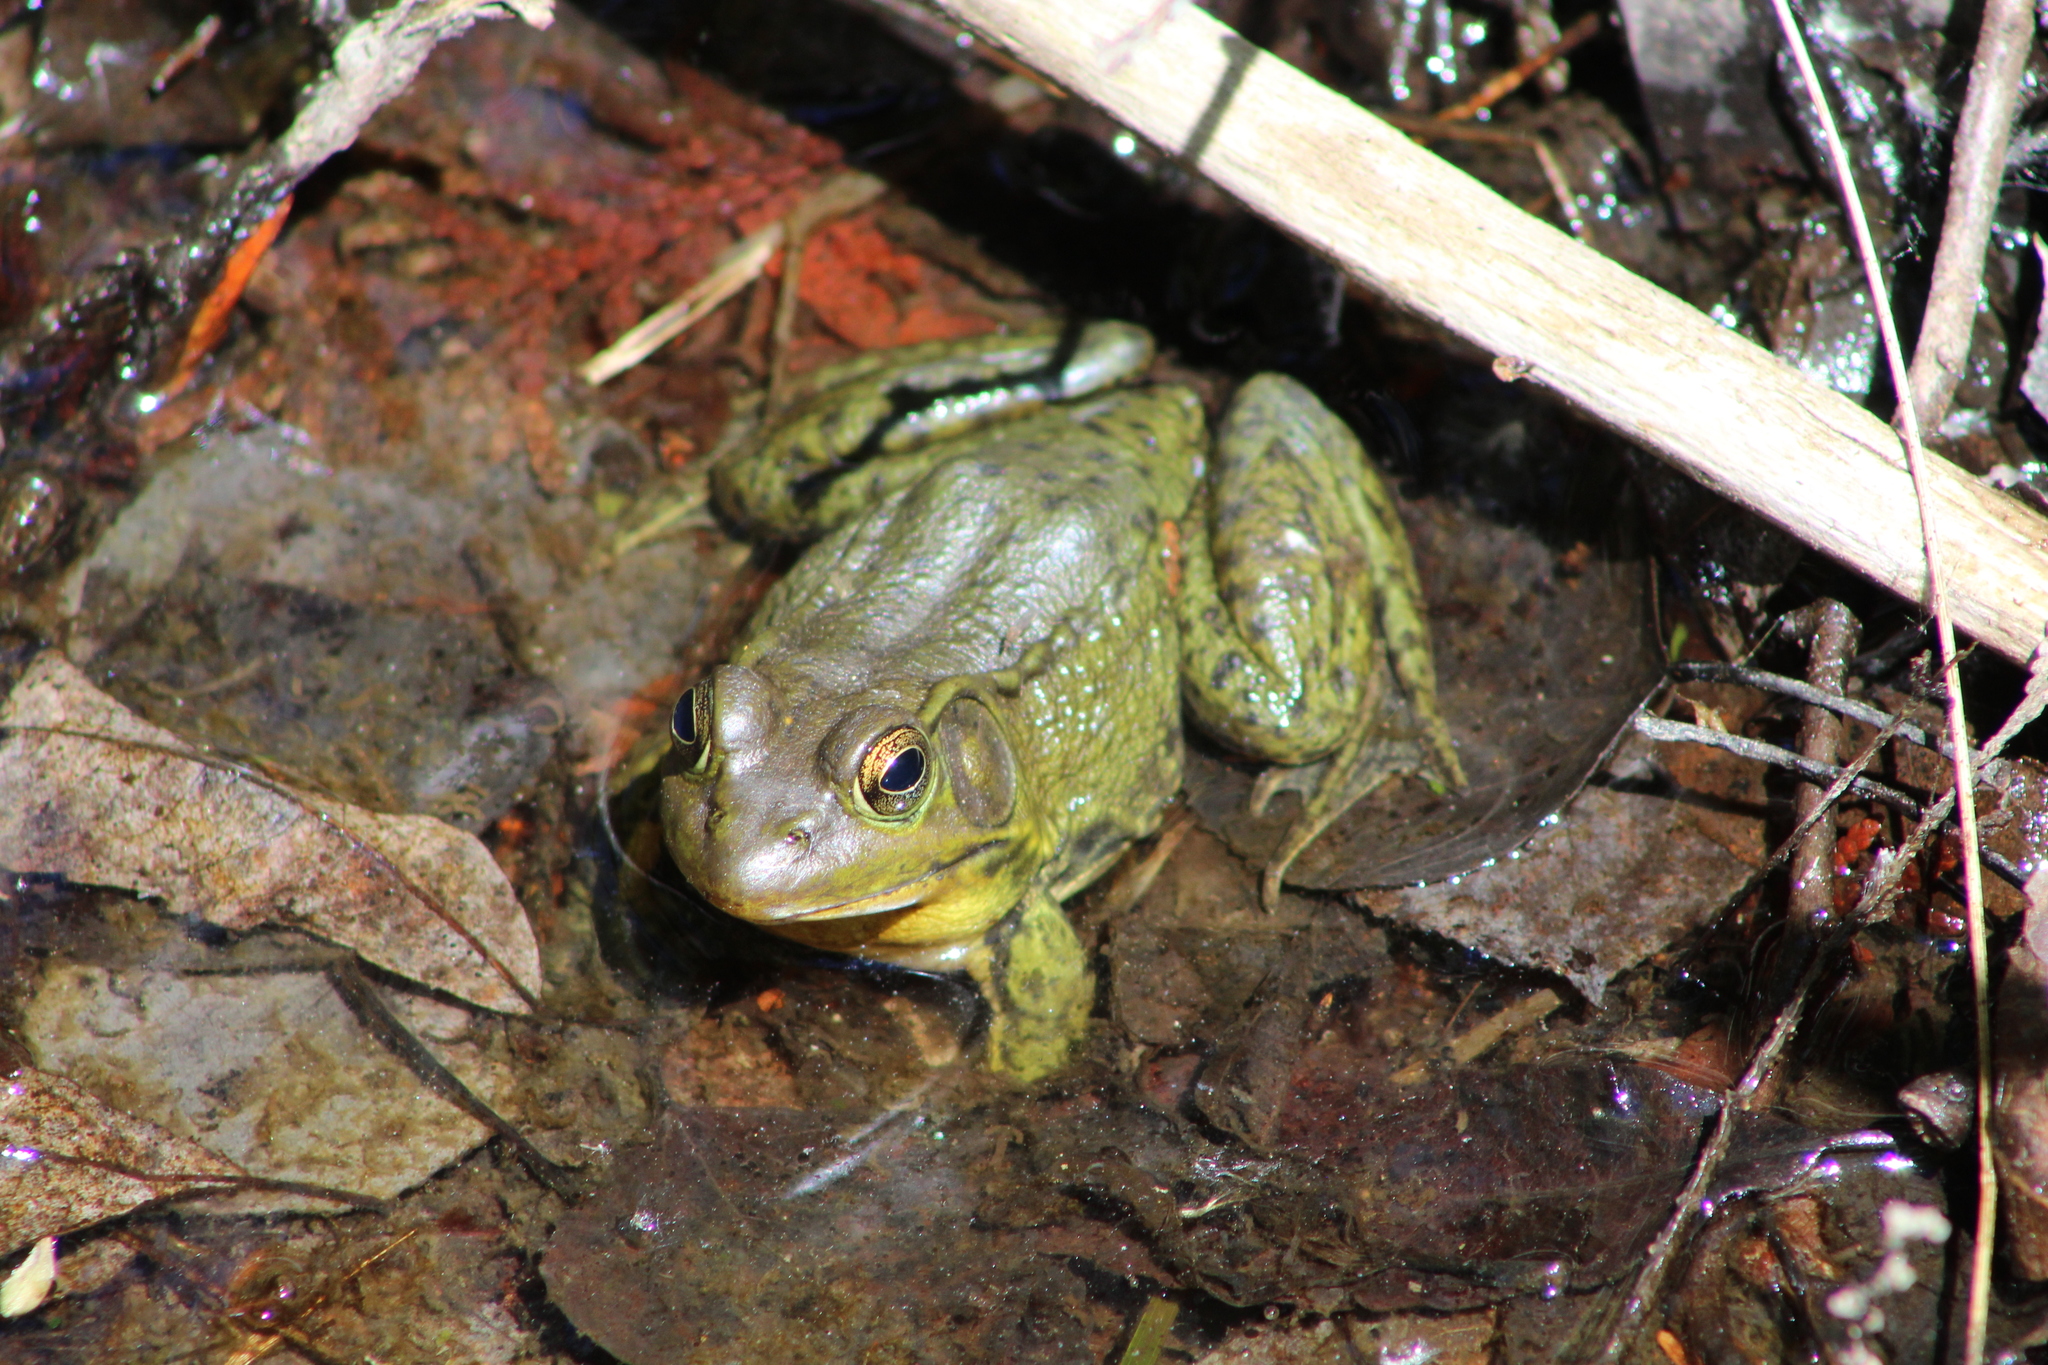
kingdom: Animalia
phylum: Chordata
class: Amphibia
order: Anura
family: Ranidae
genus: Lithobates
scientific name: Lithobates clamitans
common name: Green frog
